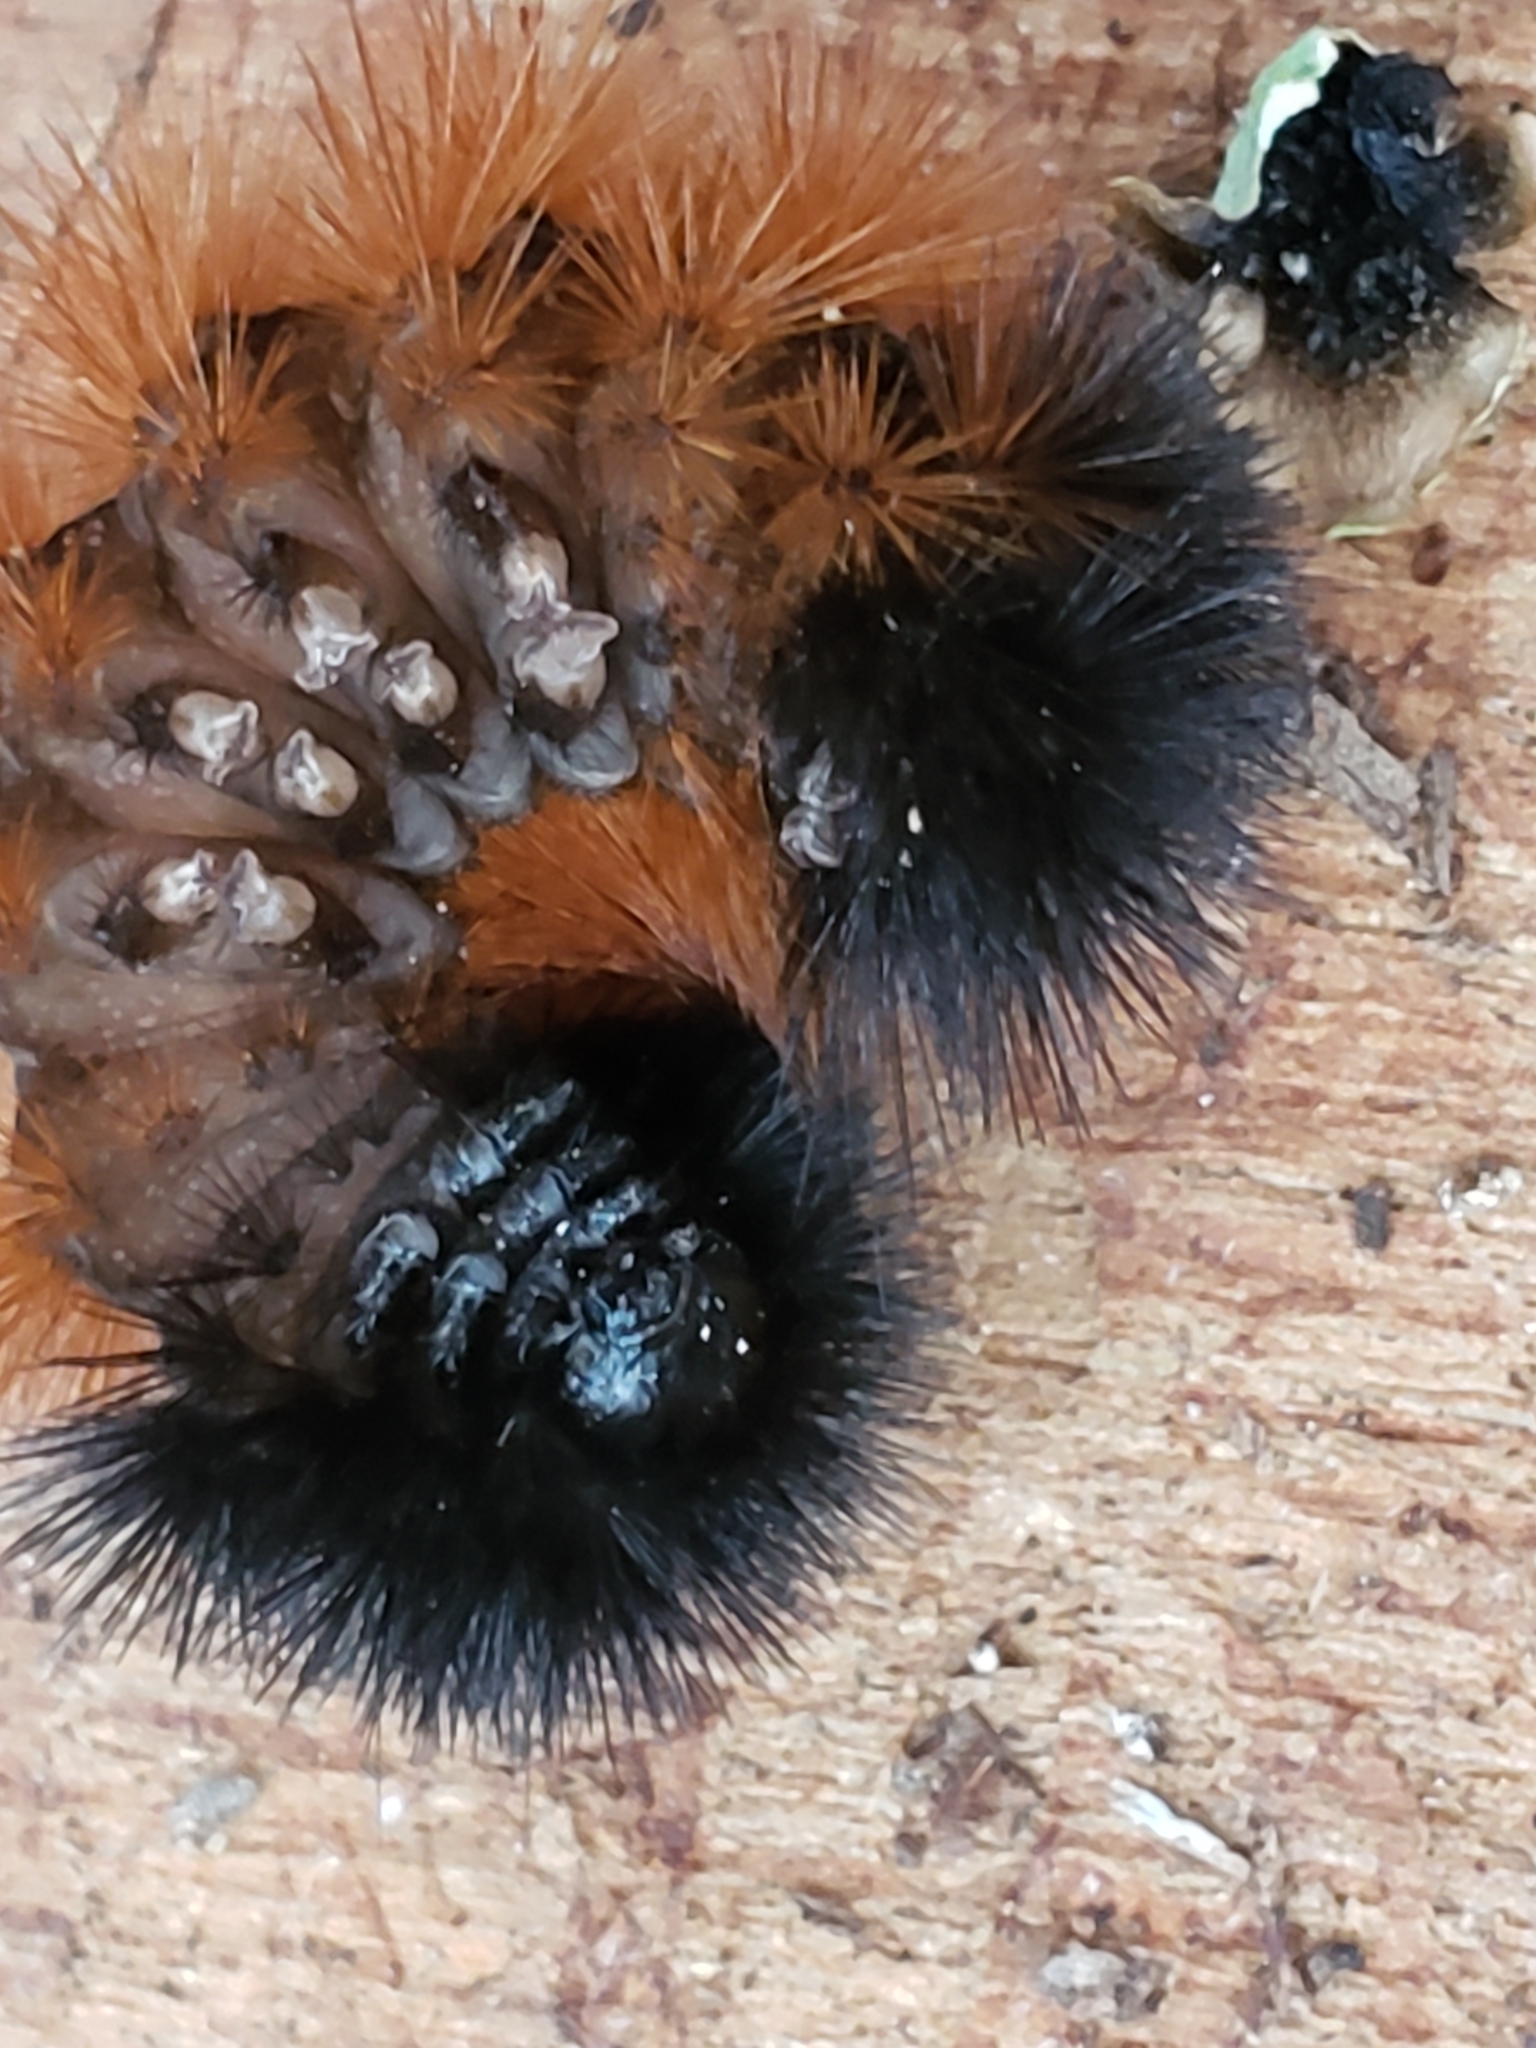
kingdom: Animalia
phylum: Arthropoda
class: Insecta
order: Lepidoptera
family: Erebidae
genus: Pyrrharctia
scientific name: Pyrrharctia isabella
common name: Isabella tiger moth
